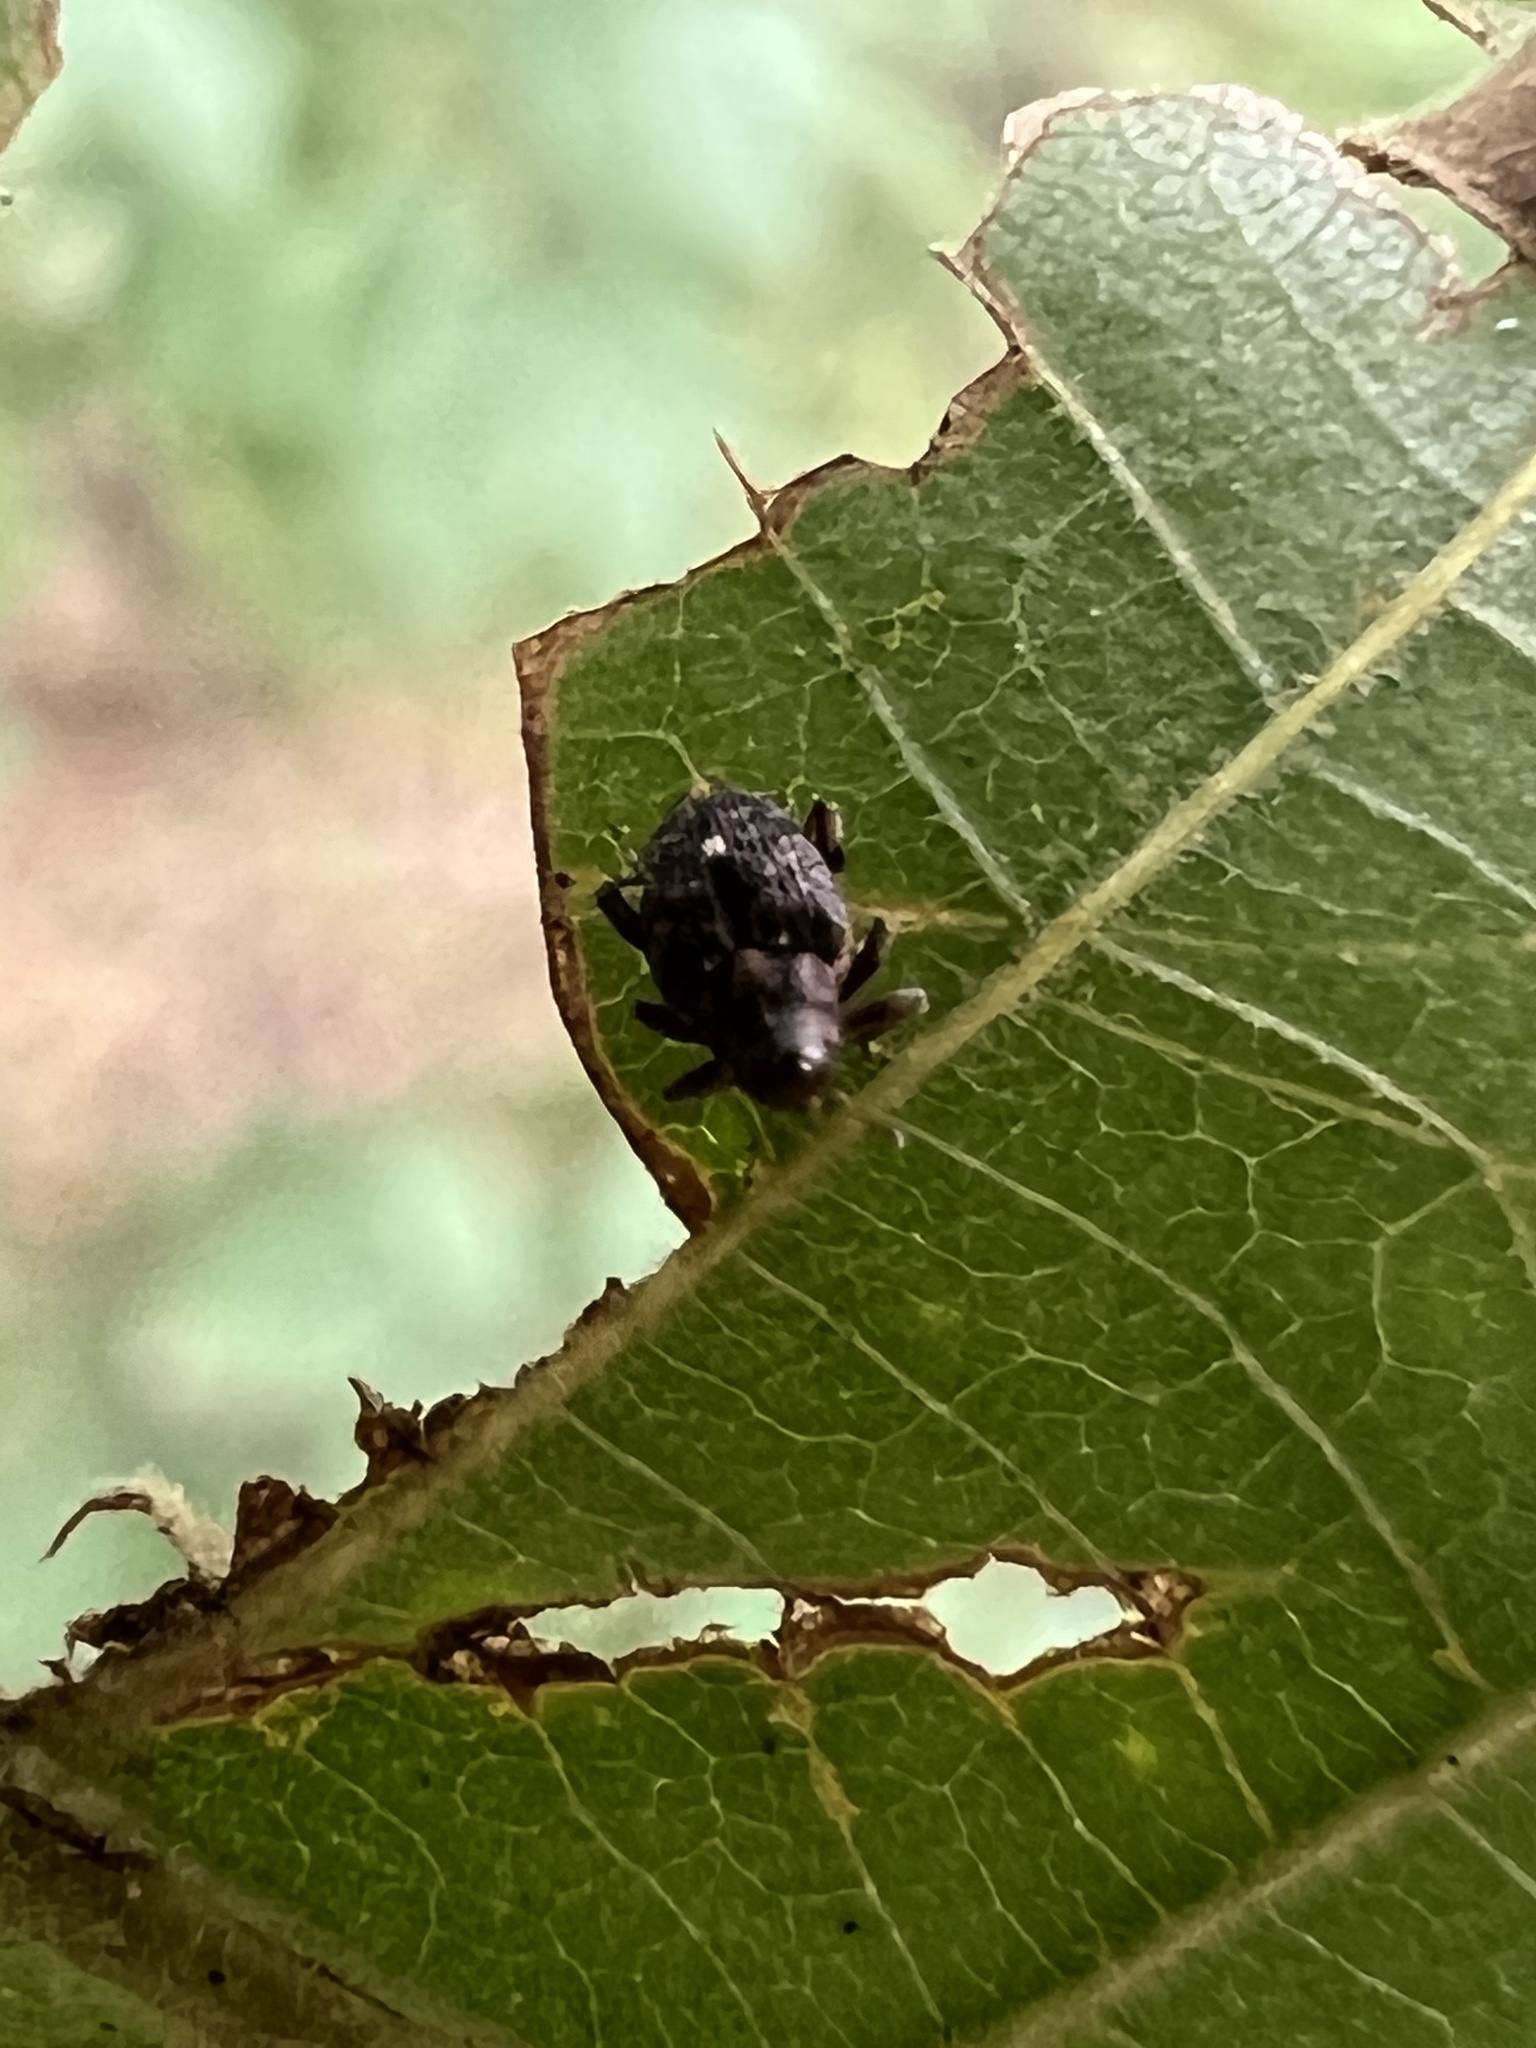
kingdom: Animalia
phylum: Arthropoda
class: Insecta
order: Coleoptera
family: Curculionidae
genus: Lechriops
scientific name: Lechriops oculatus
